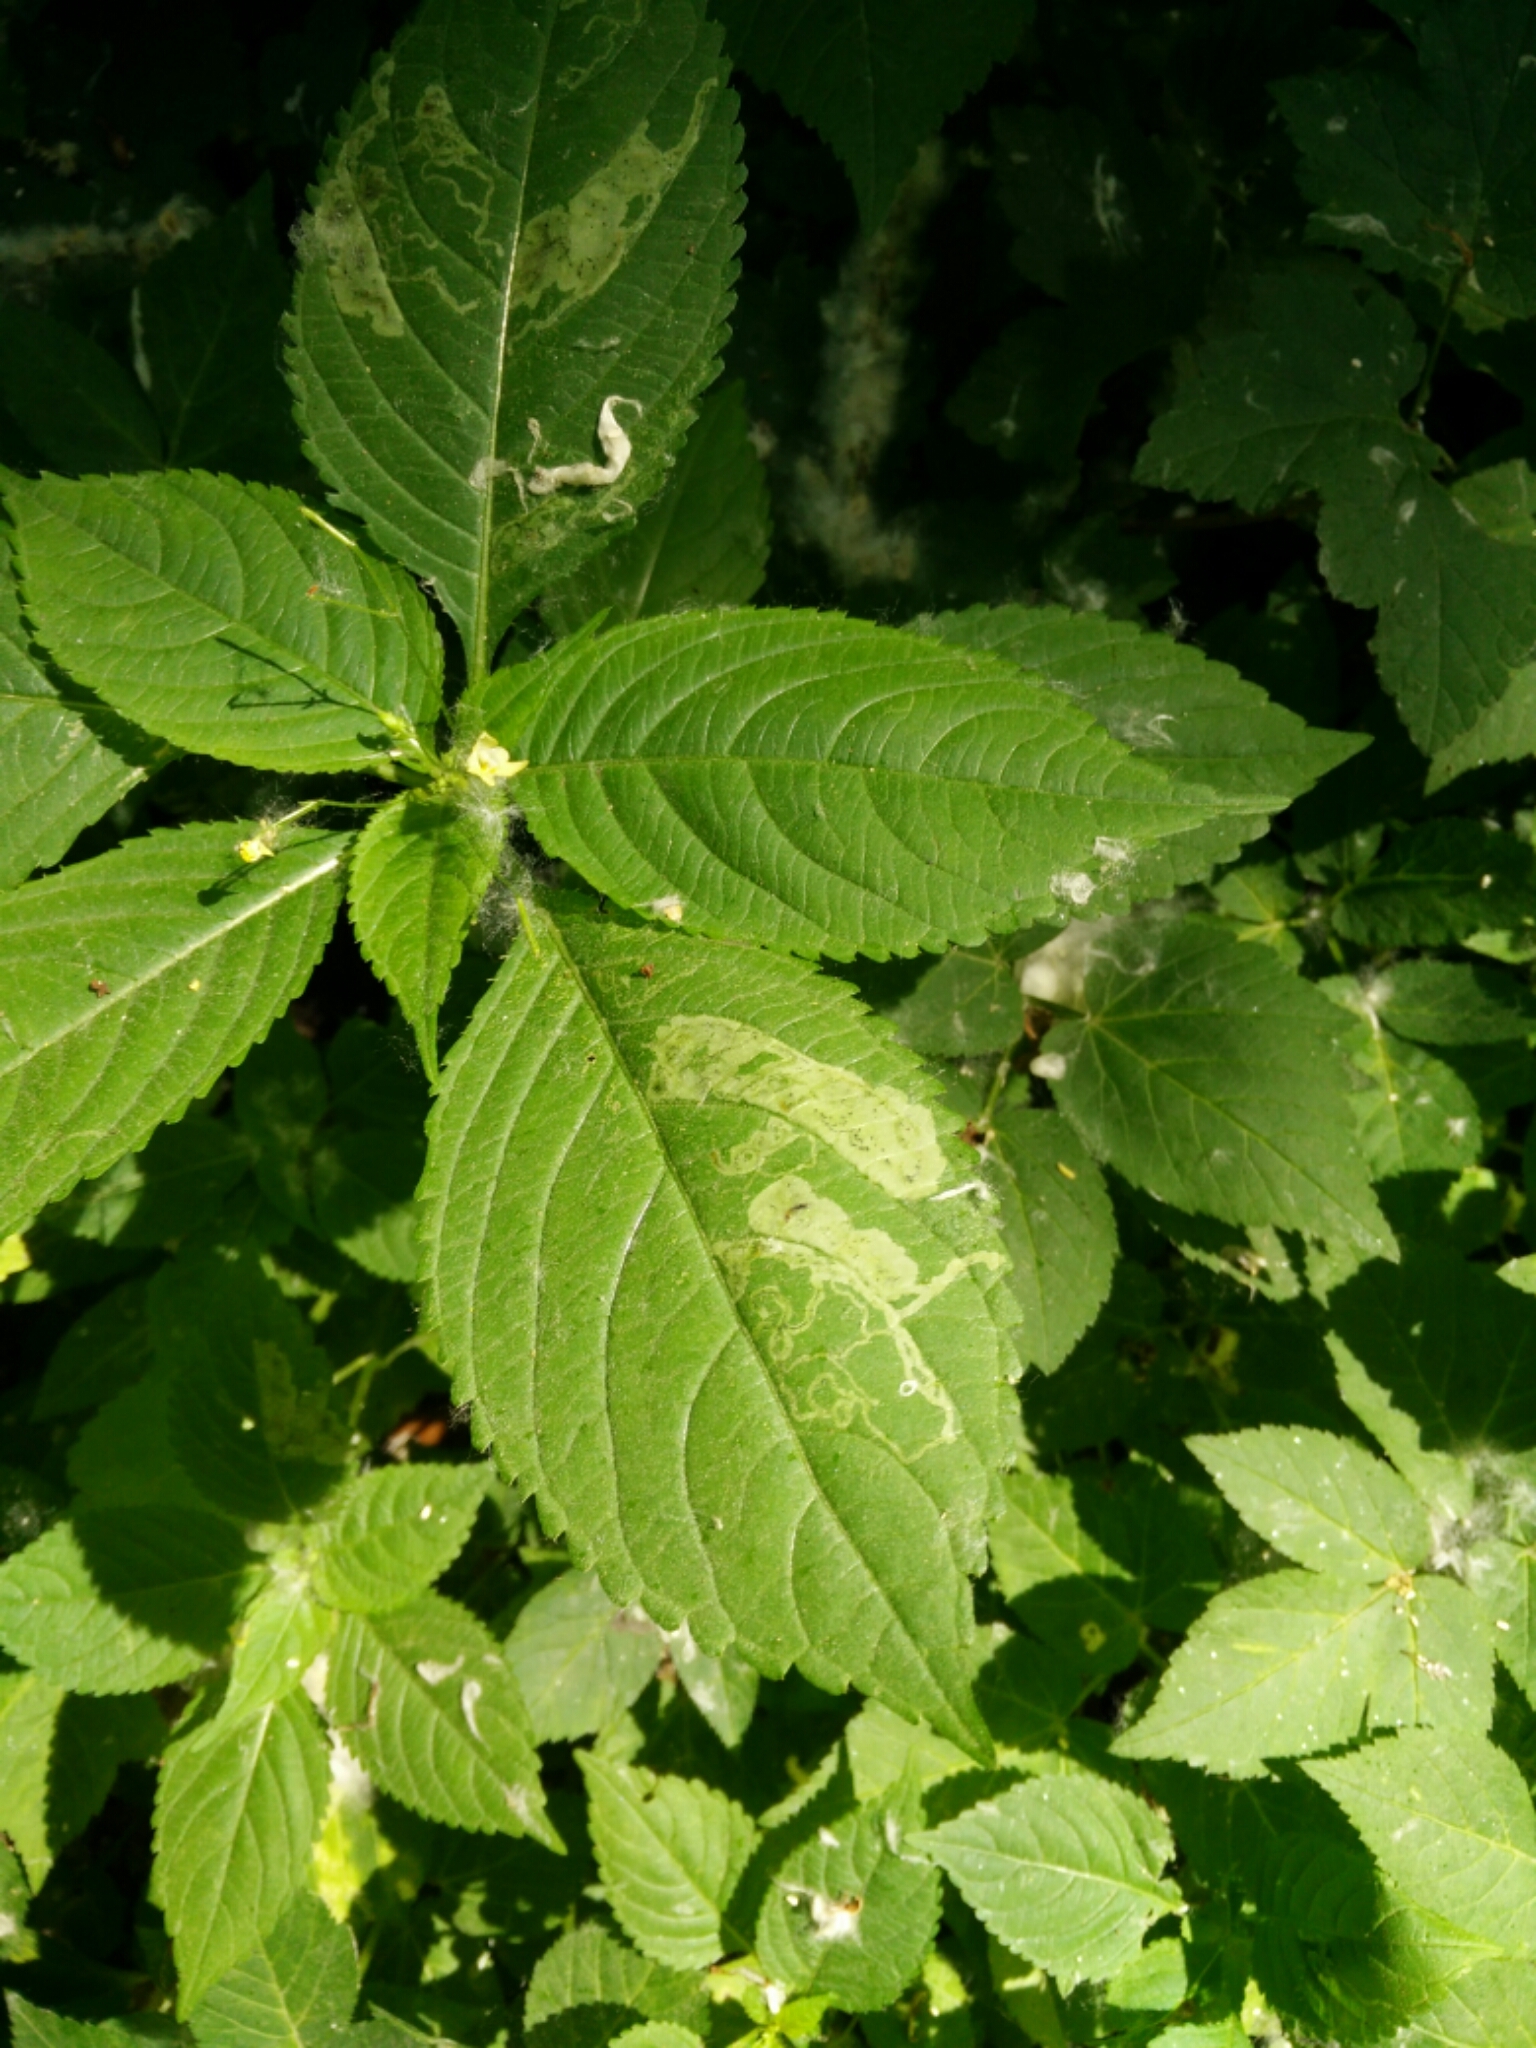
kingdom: Animalia
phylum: Arthropoda
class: Insecta
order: Diptera
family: Agromyzidae
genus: Phytoliriomyza
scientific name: Phytoliriomyza melampyga
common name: Jewelweed leaf-miner fly
